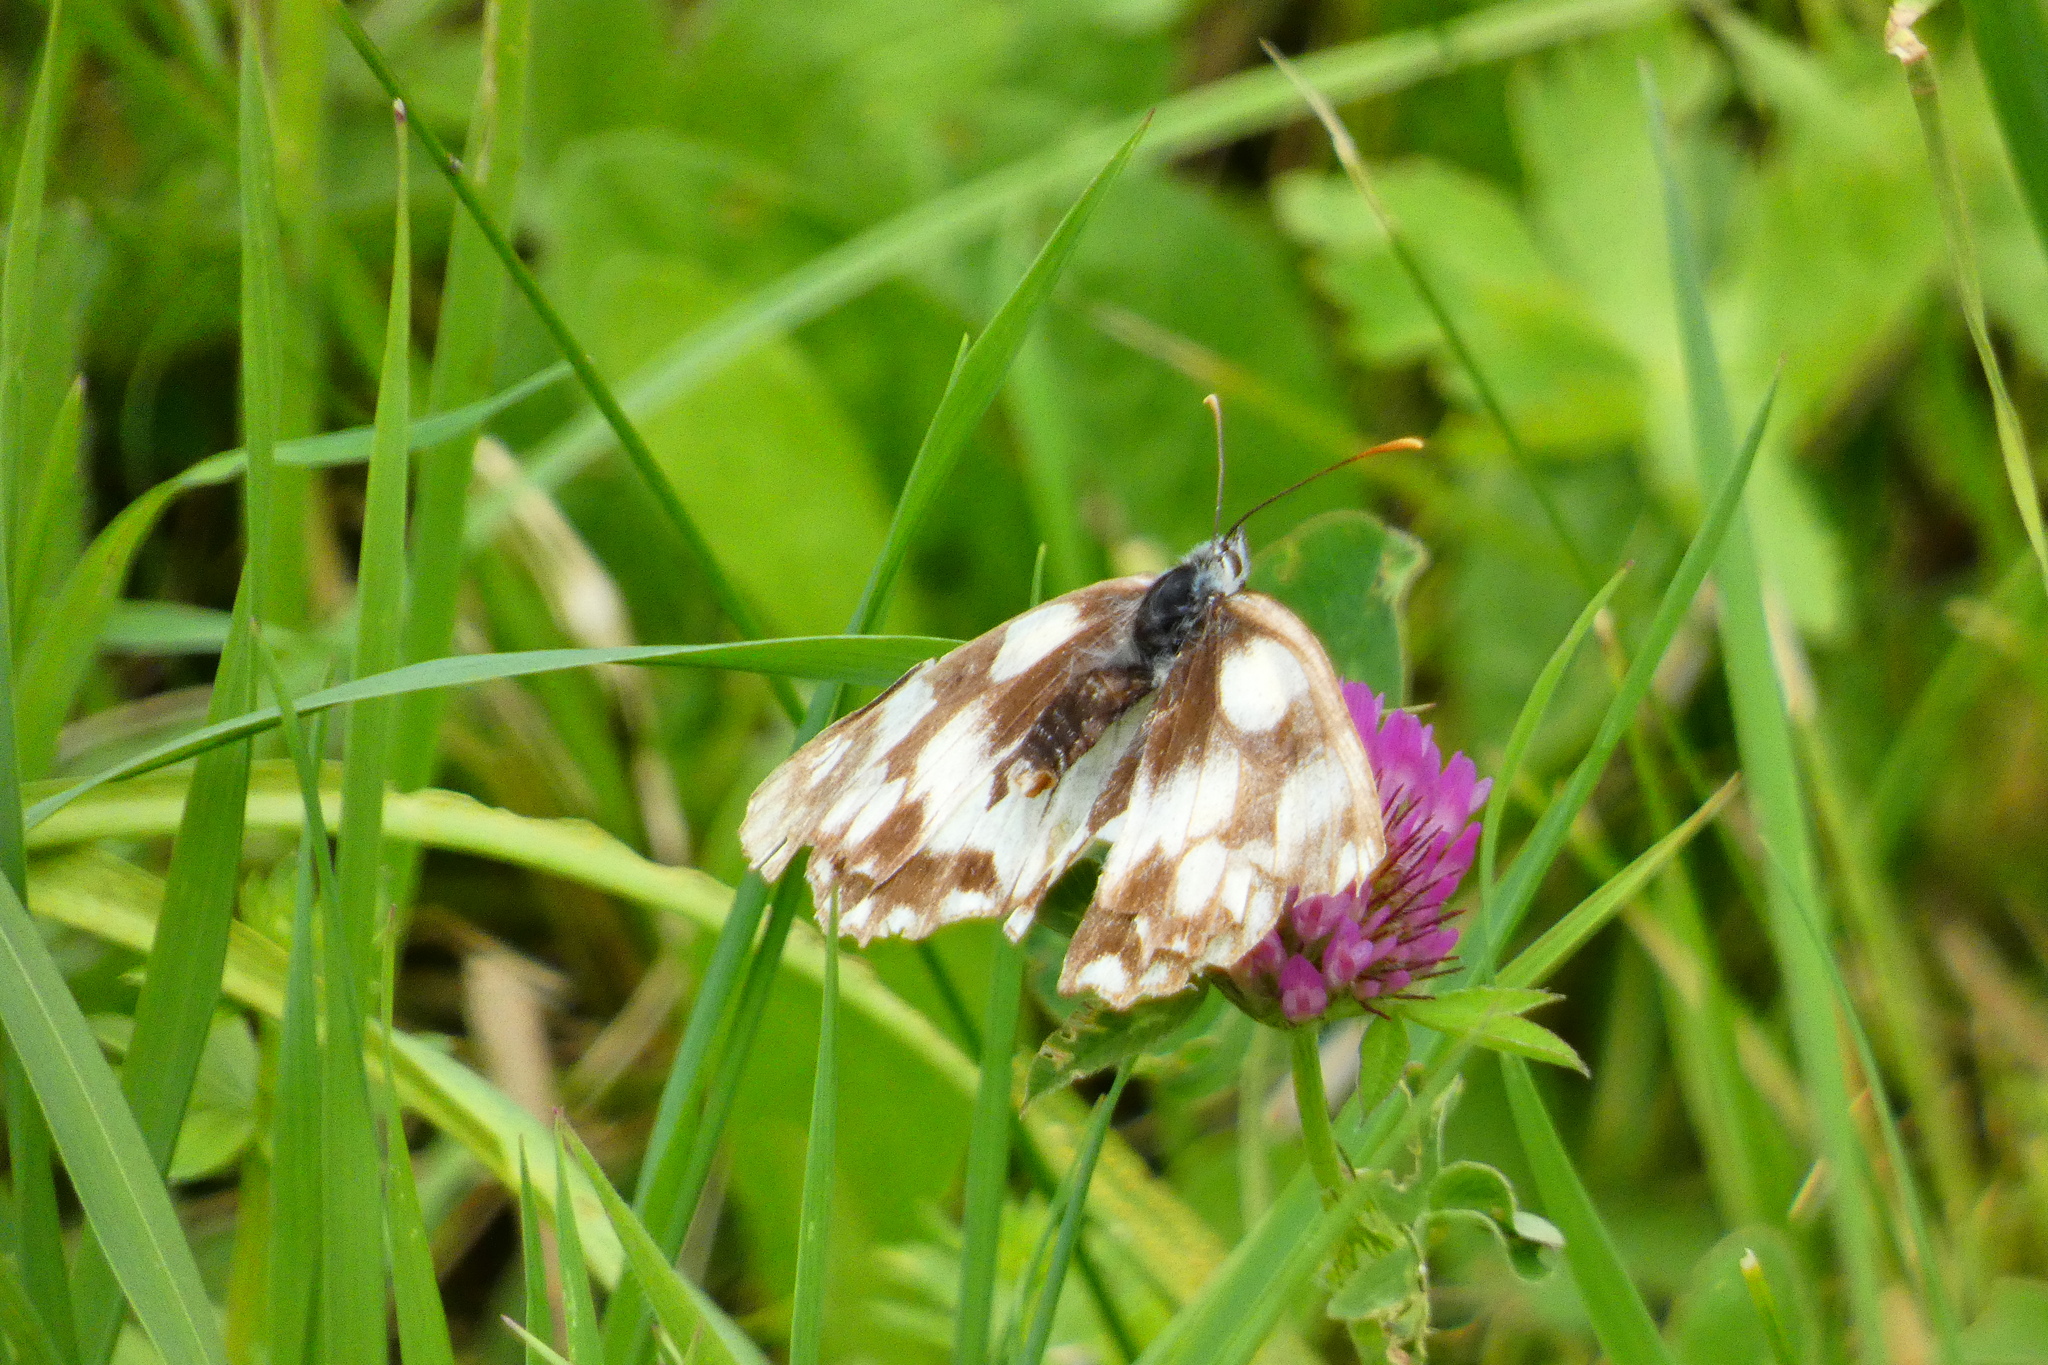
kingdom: Animalia
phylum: Arthropoda
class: Insecta
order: Lepidoptera
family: Nymphalidae
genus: Melanargia
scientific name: Melanargia galathea
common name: Marbled white
